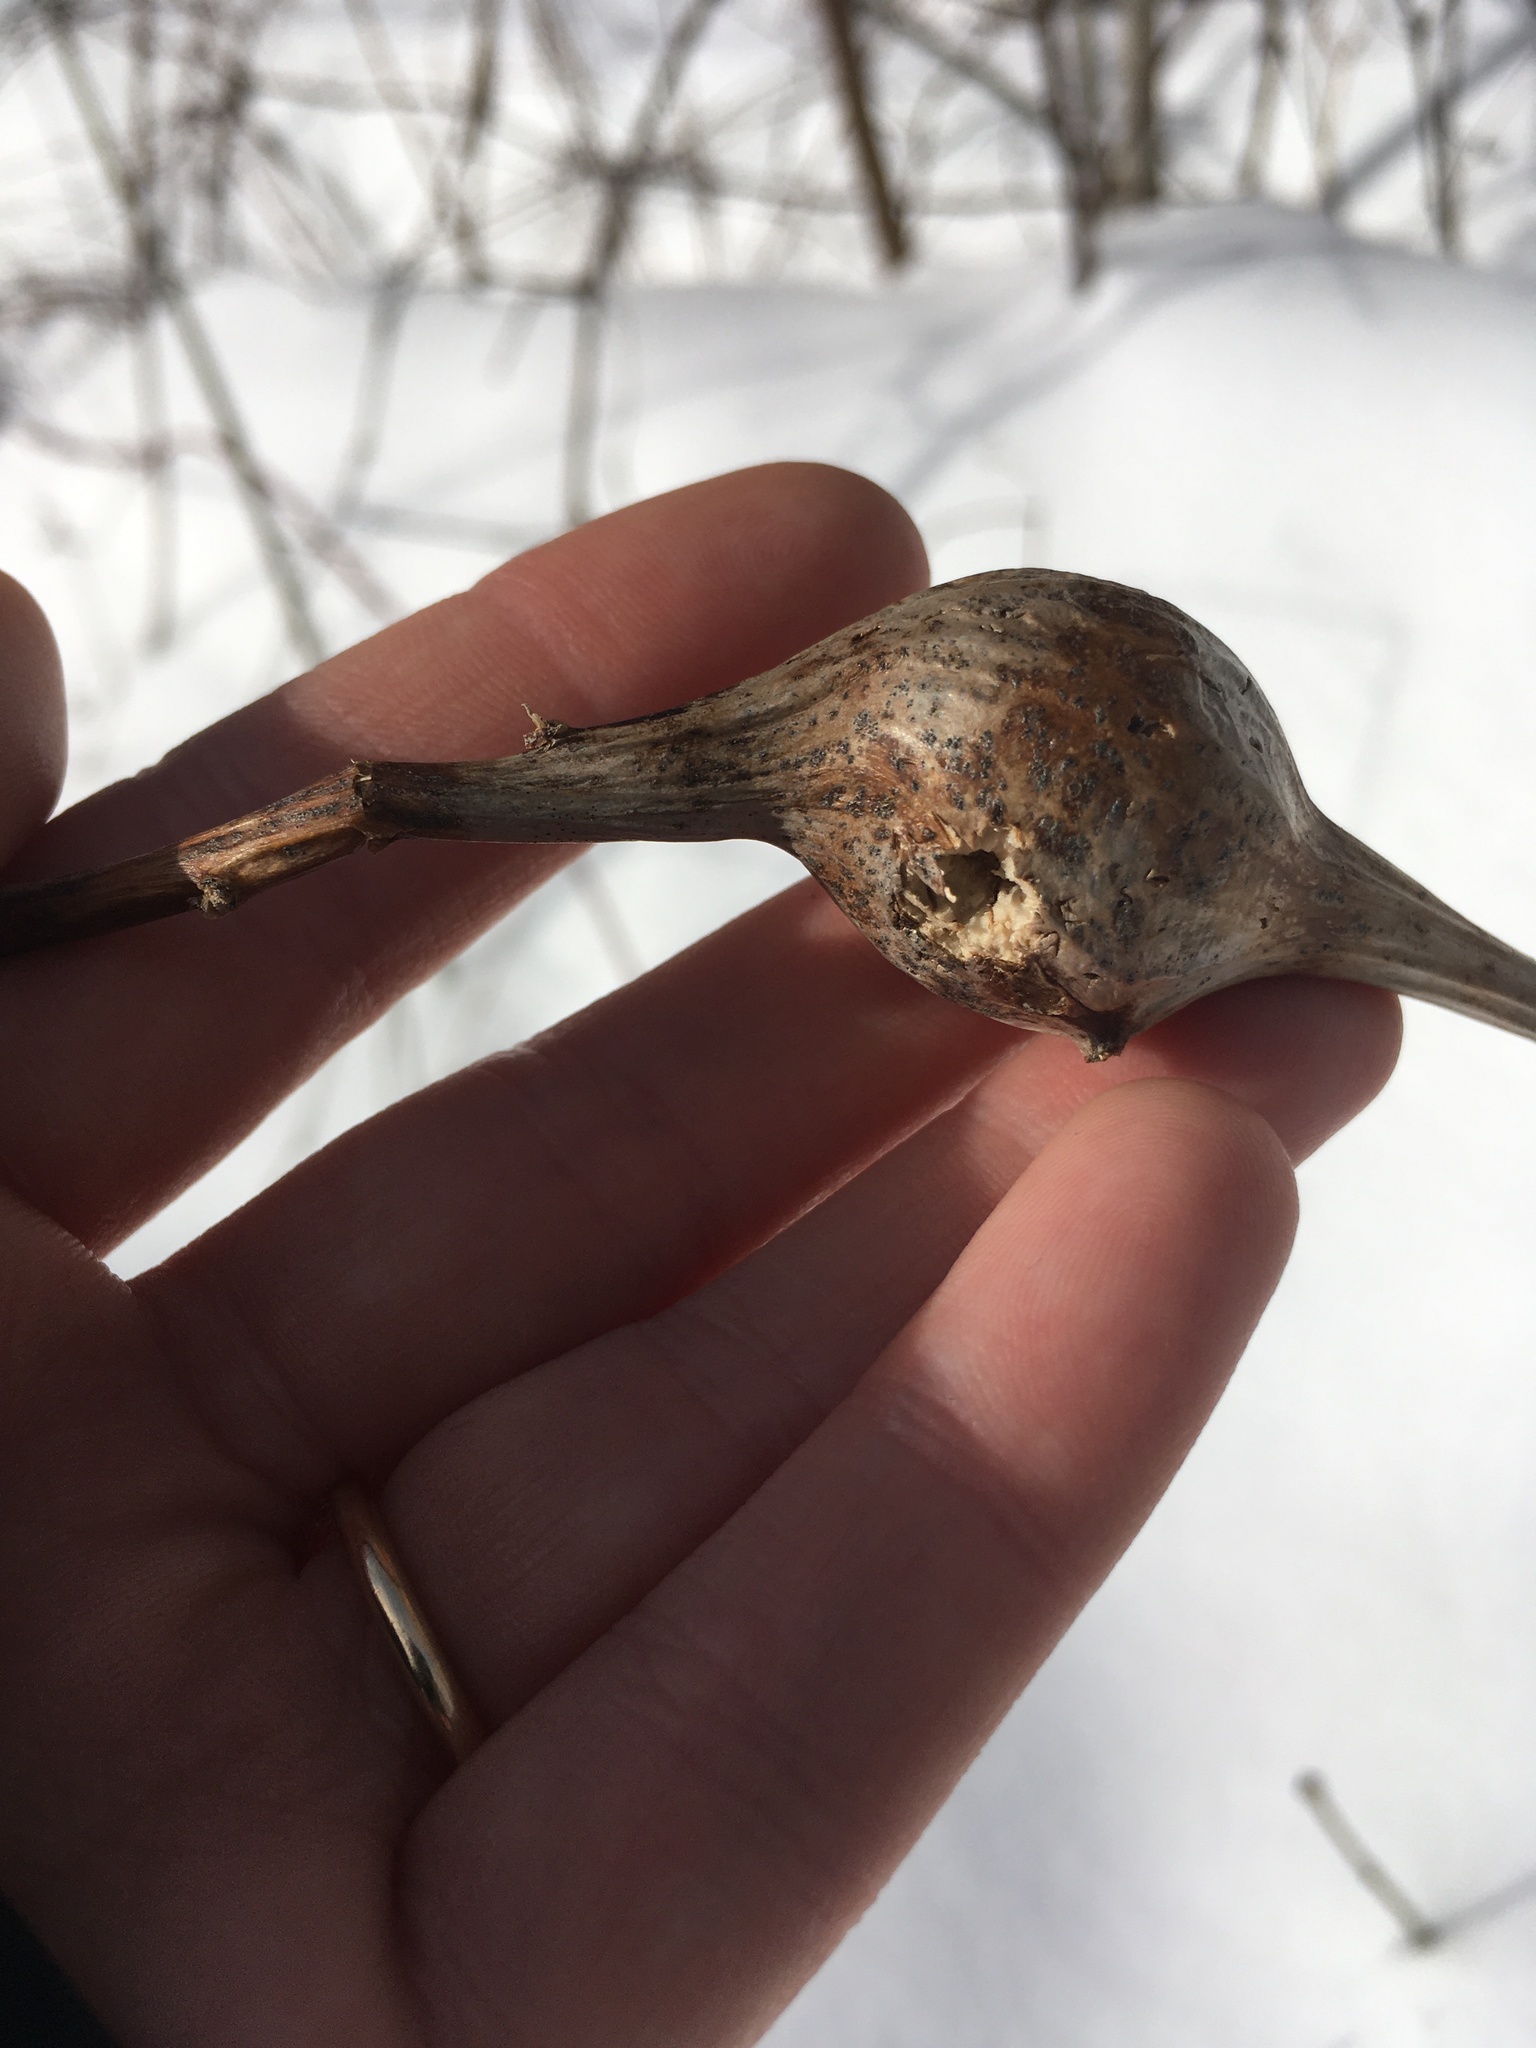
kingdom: Animalia
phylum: Arthropoda
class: Insecta
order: Diptera
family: Tephritidae
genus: Eurosta
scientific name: Eurosta solidaginis
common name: Goldenrod gall fly
